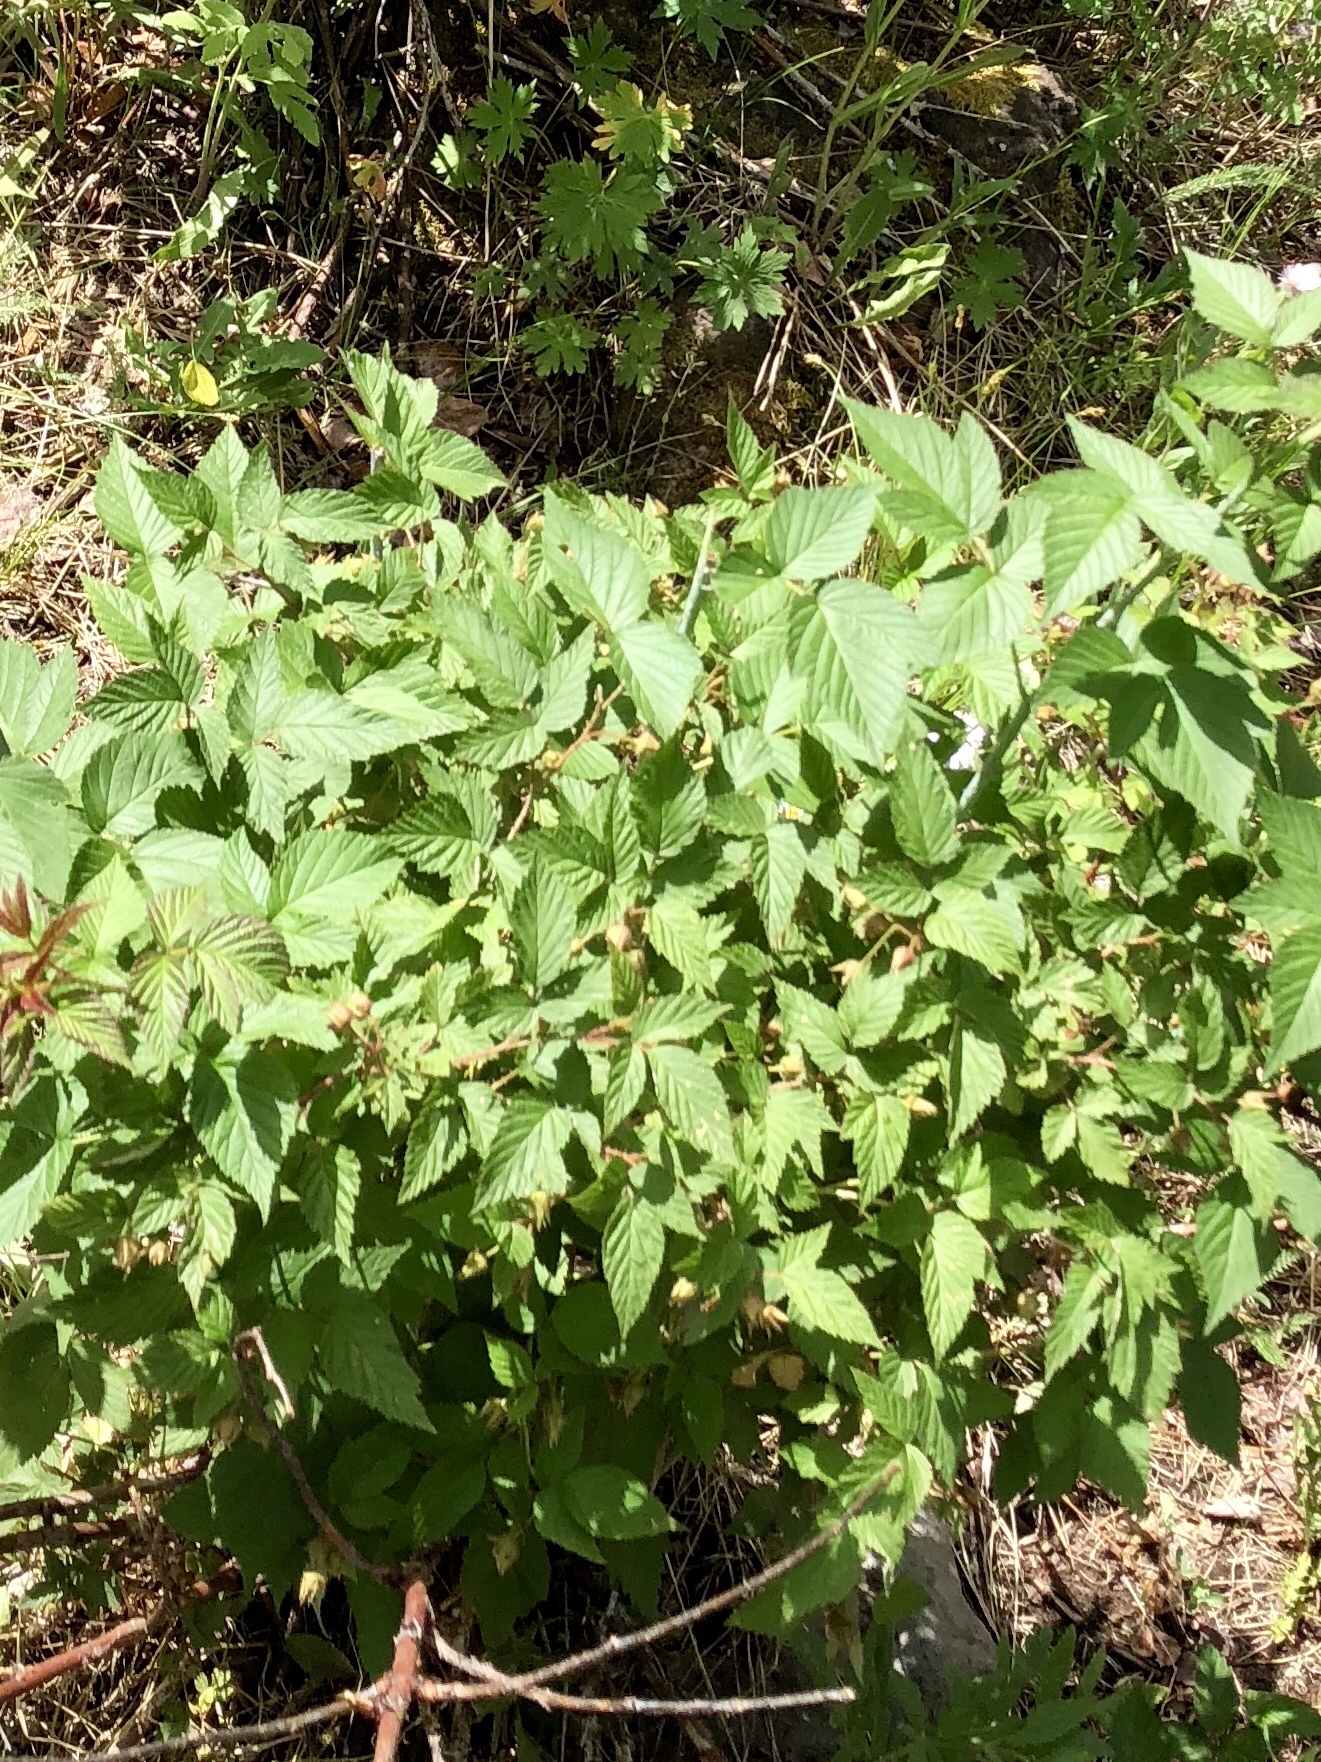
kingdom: Plantae
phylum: Tracheophyta
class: Magnoliopsida
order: Rosales
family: Rosaceae
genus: Rubus
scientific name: Rubus idaeus
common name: Raspberry
